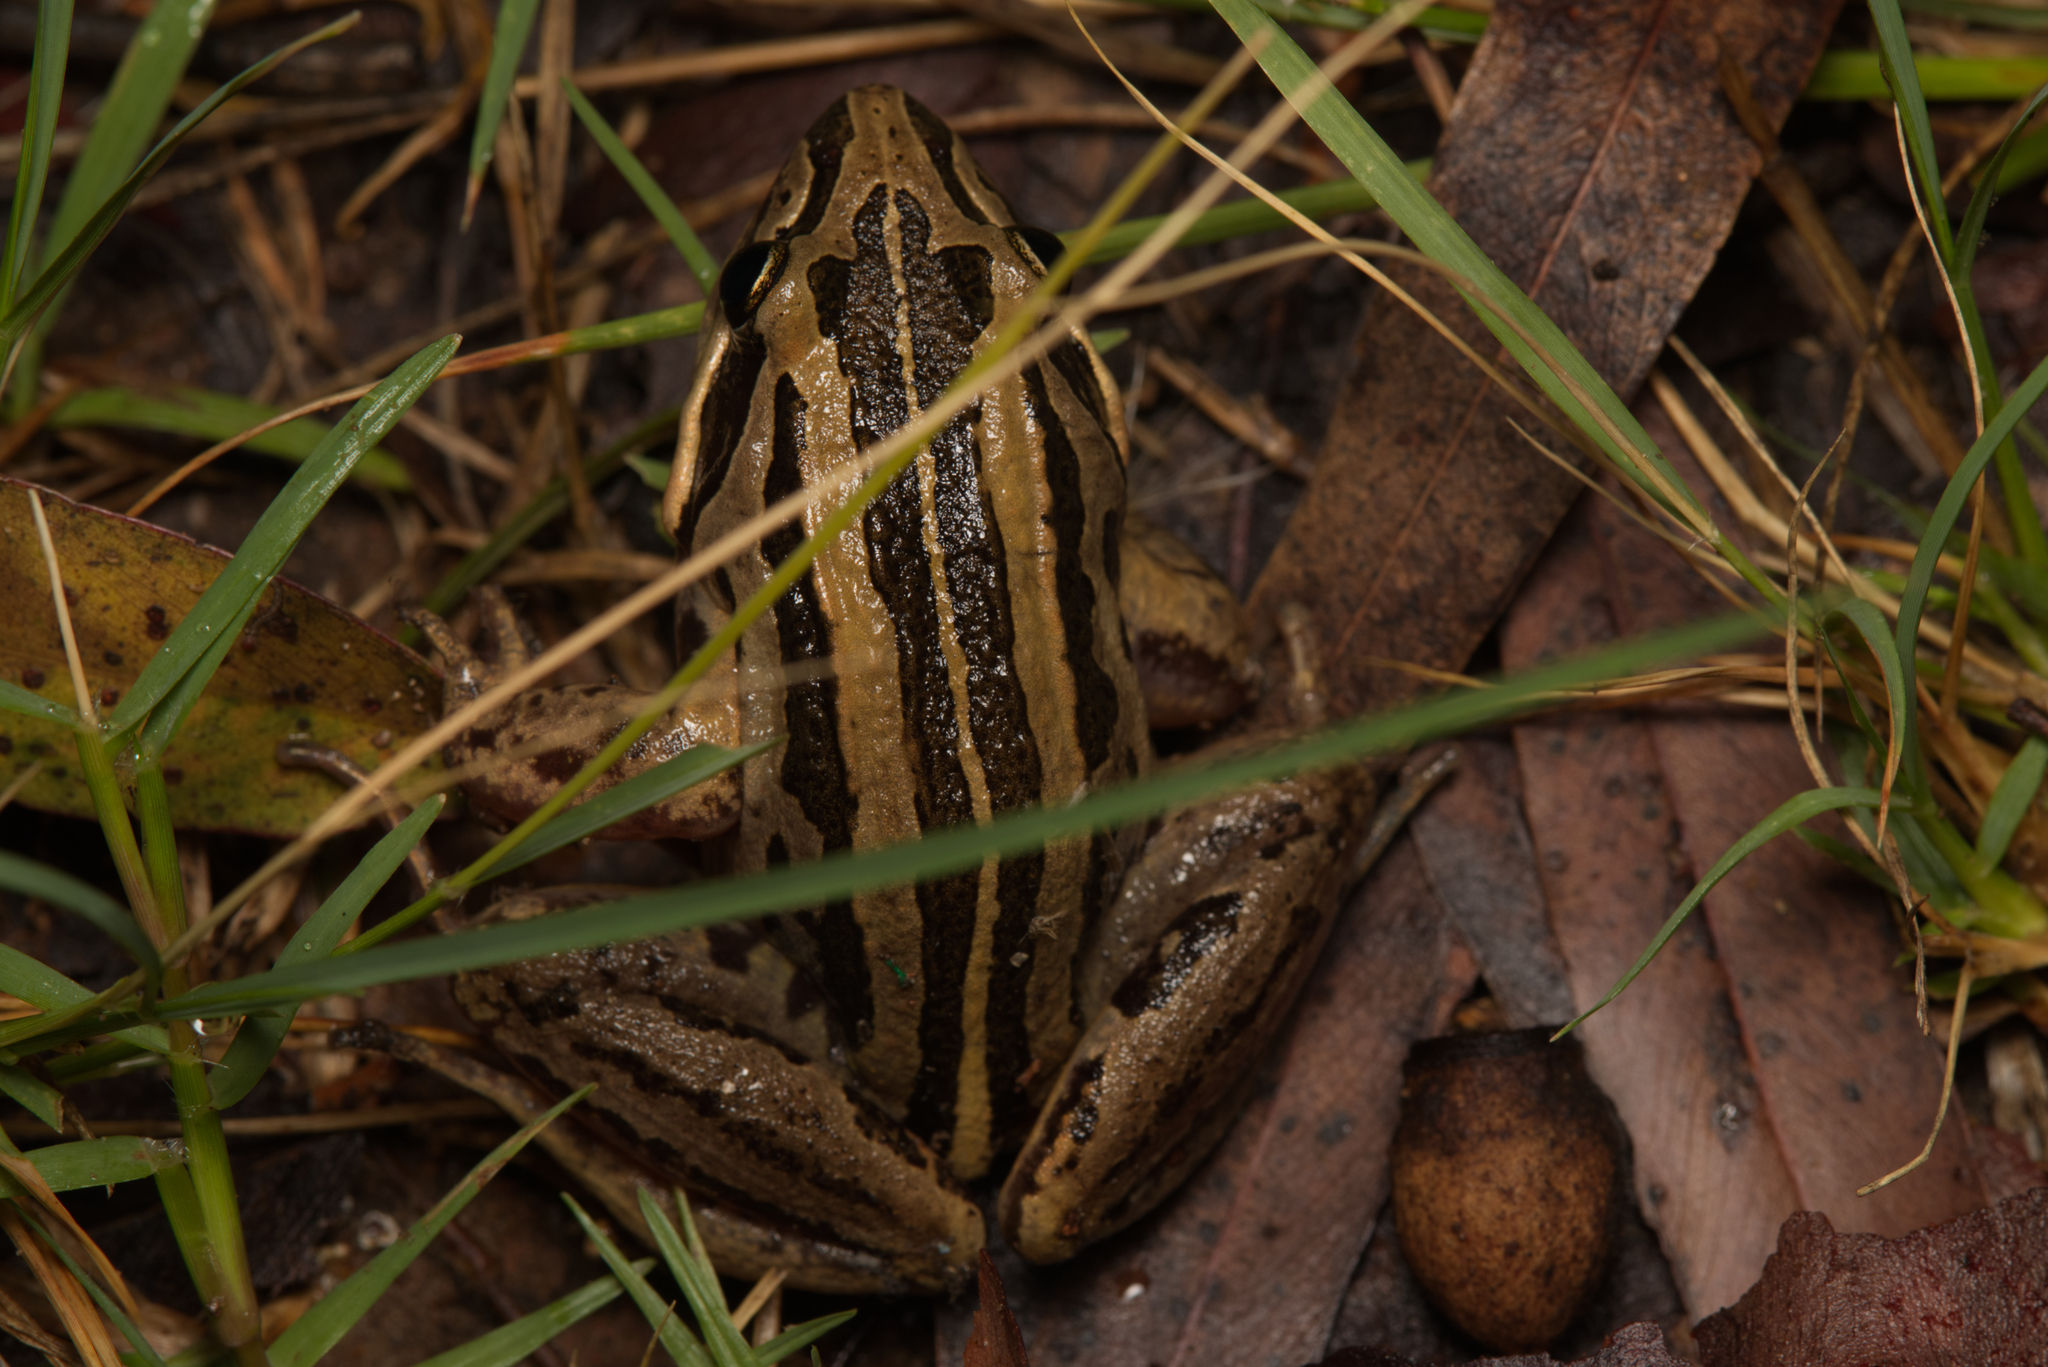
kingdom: Animalia
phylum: Chordata
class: Amphibia
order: Anura
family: Limnodynastidae
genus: Limnodynastes
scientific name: Limnodynastes peronii
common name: Brown frog
